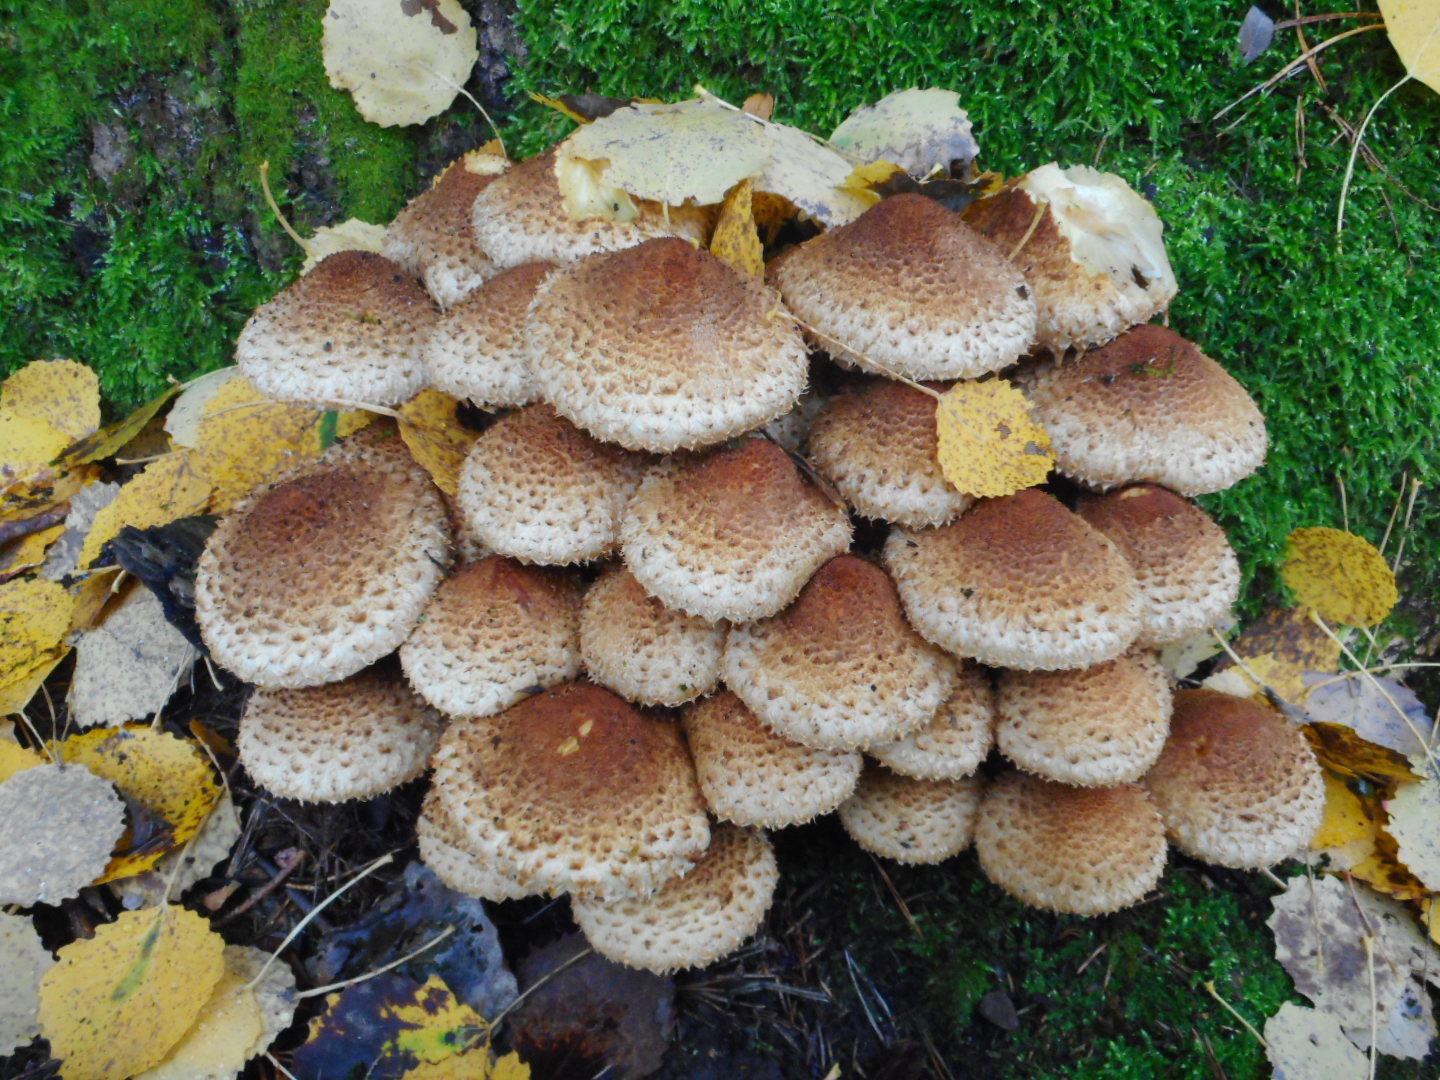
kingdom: Fungi
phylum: Basidiomycota
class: Agaricomycetes
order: Agaricales
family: Strophariaceae
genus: Pholiota
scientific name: Pholiota squarrosa
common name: Shaggy pholiota
